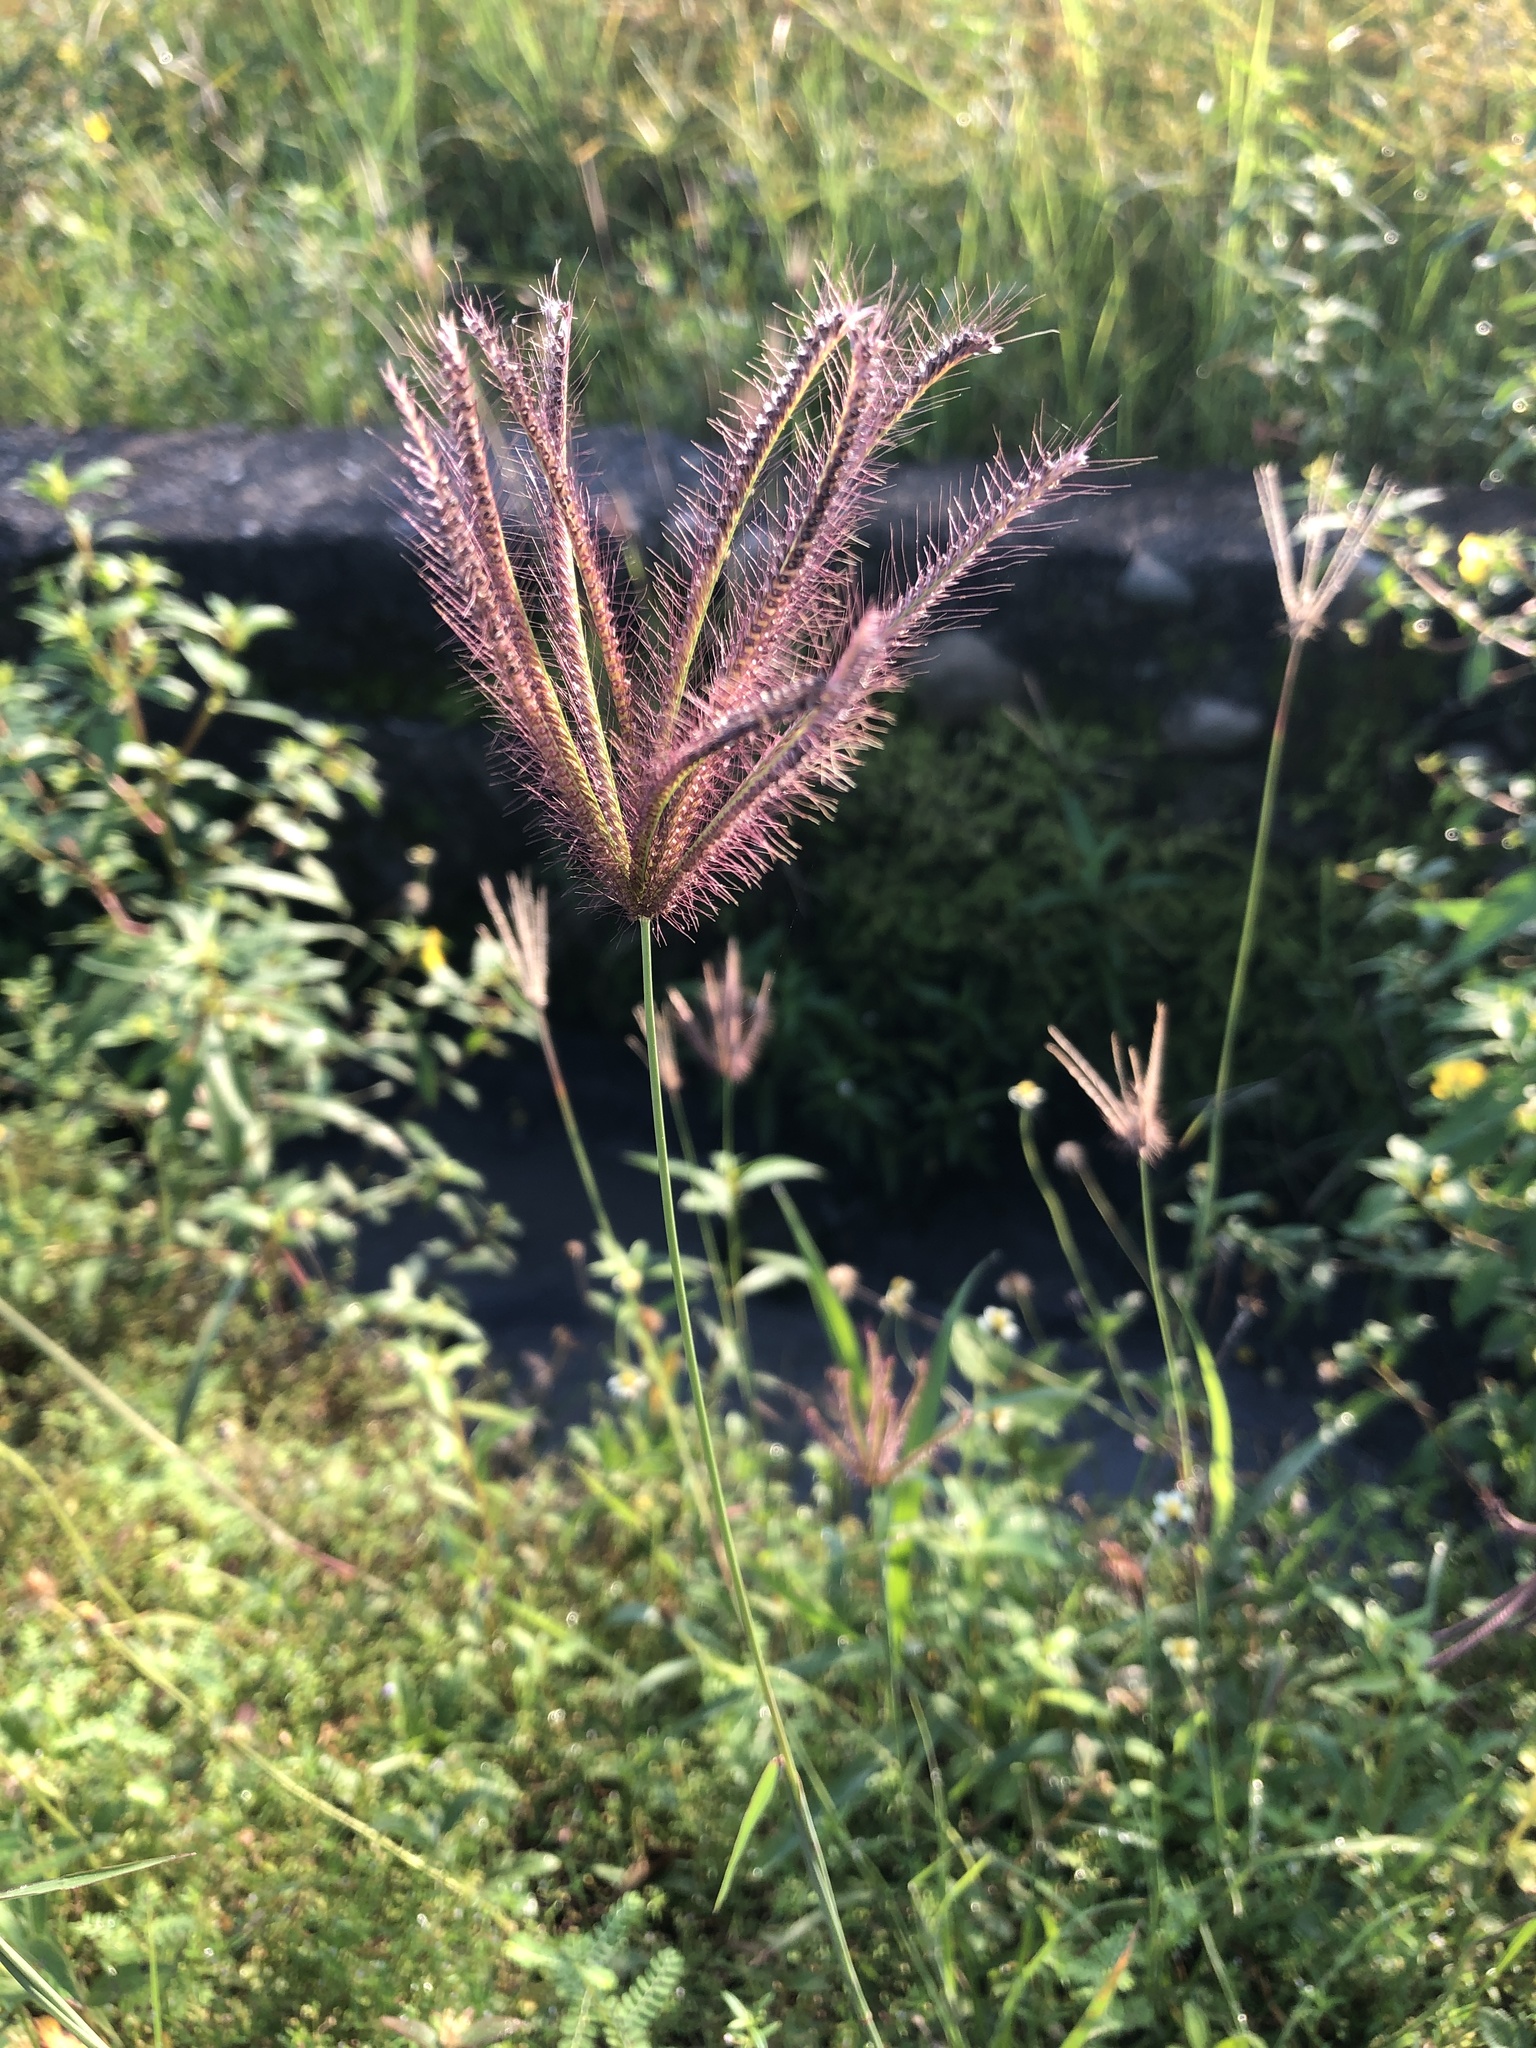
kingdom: Plantae
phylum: Tracheophyta
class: Liliopsida
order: Poales
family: Poaceae
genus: Chloris
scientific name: Chloris barbata
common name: Swollen fingergrass
